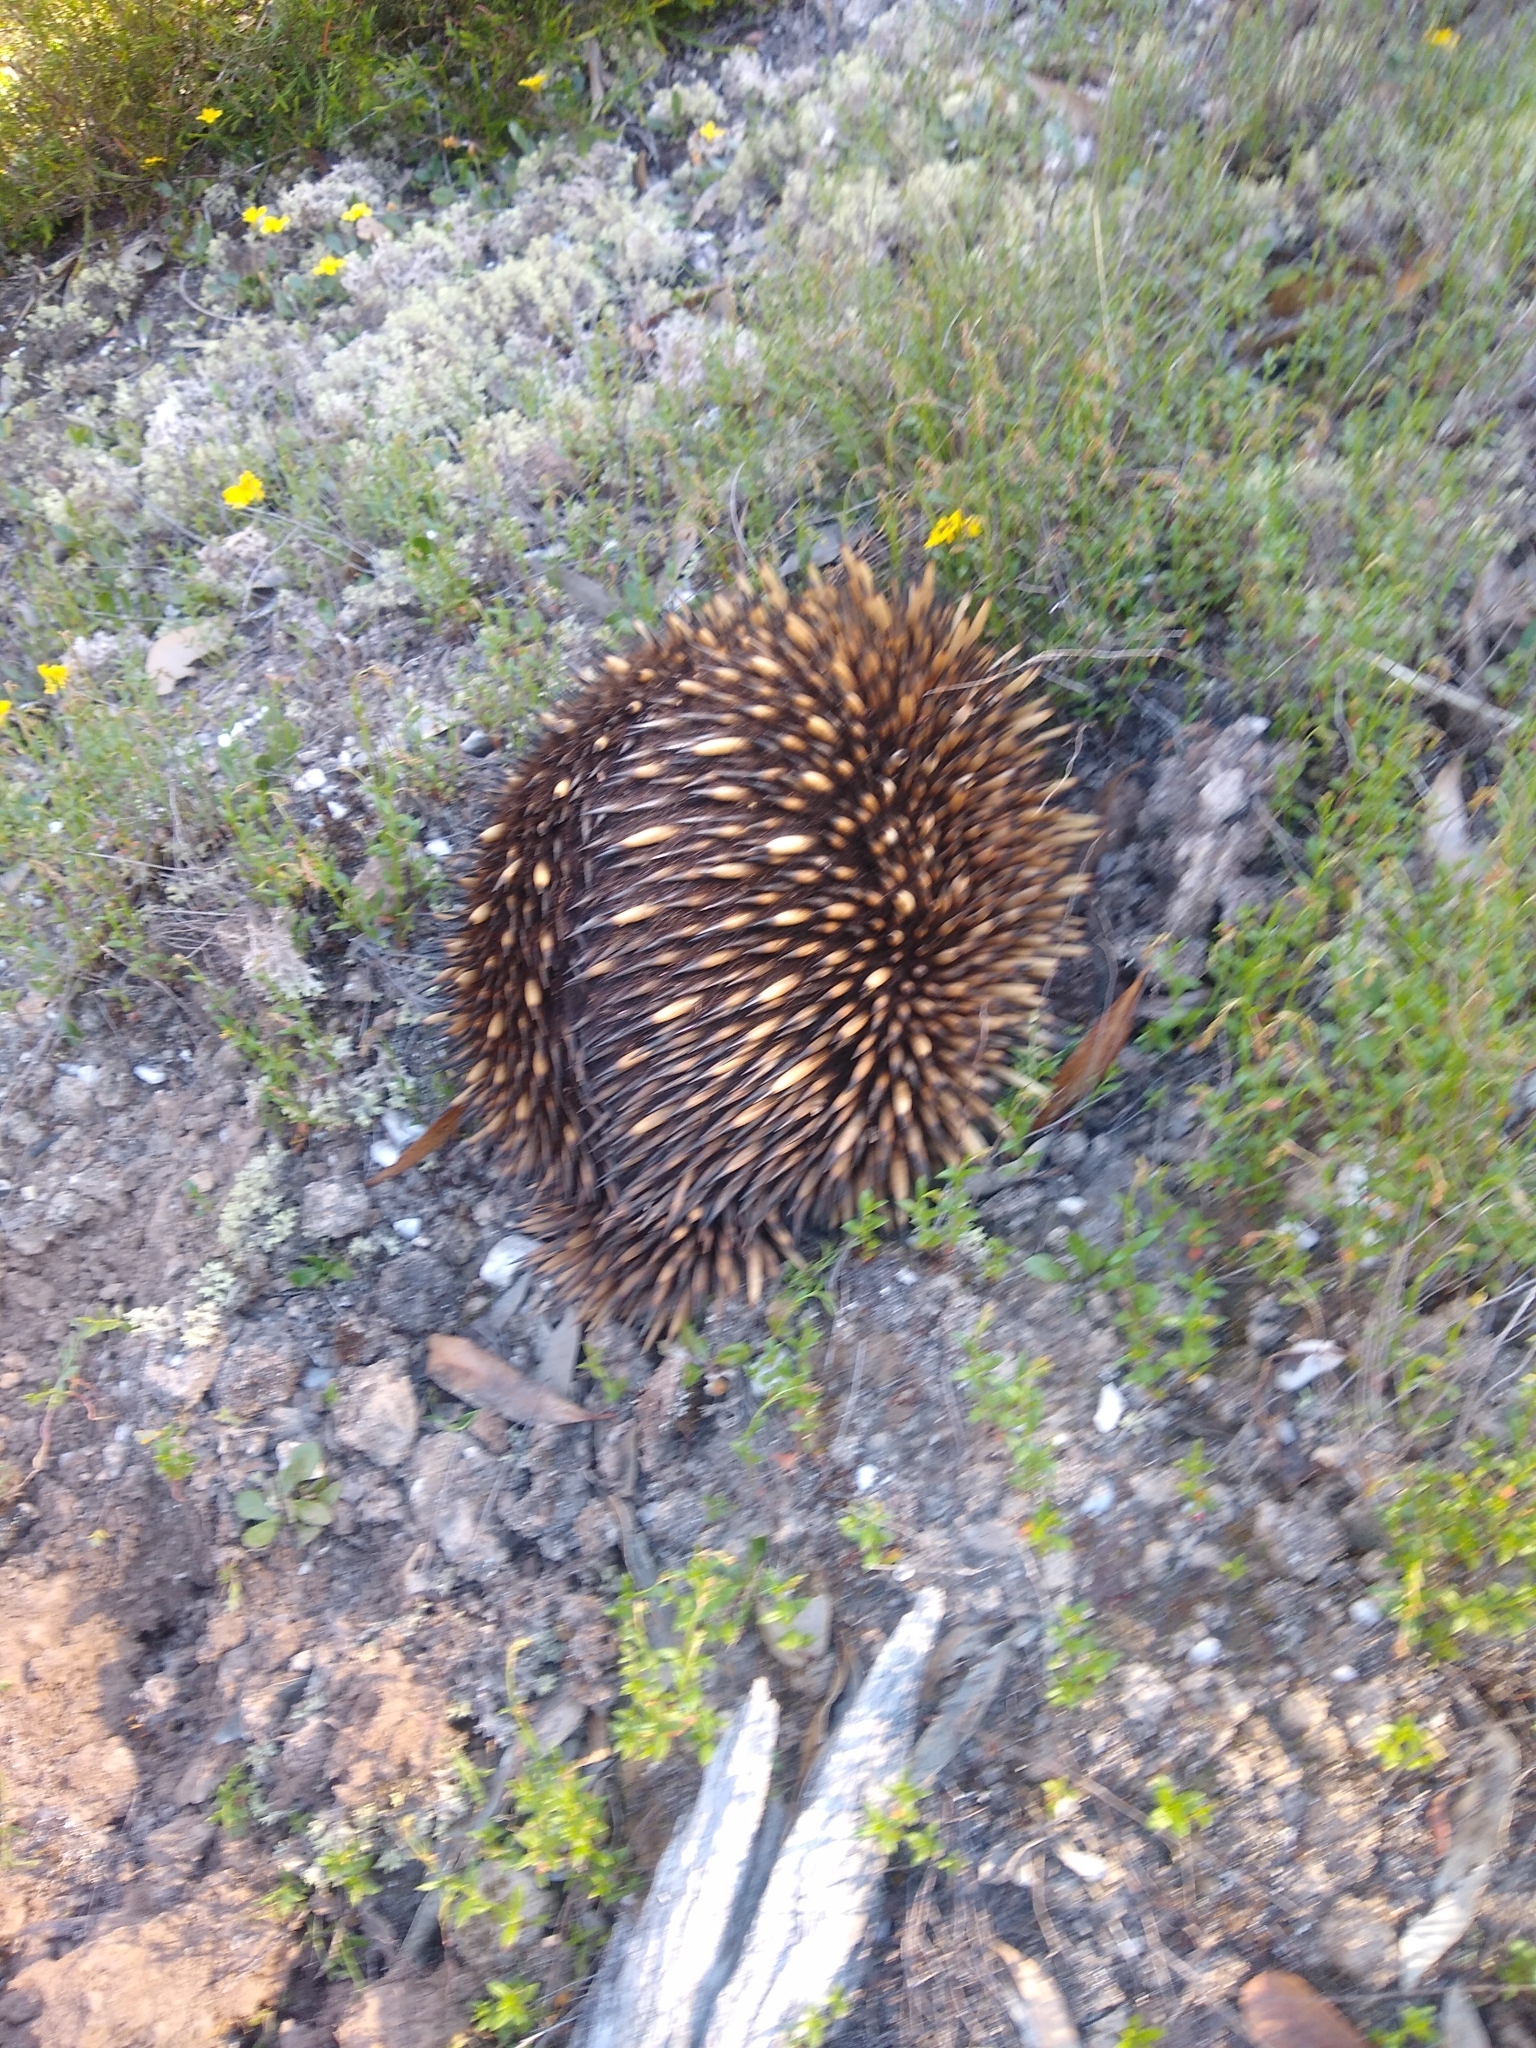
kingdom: Animalia
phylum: Chordata
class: Mammalia
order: Monotremata
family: Tachyglossidae
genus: Tachyglossus
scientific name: Tachyglossus aculeatus
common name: Short-beaked echidna
